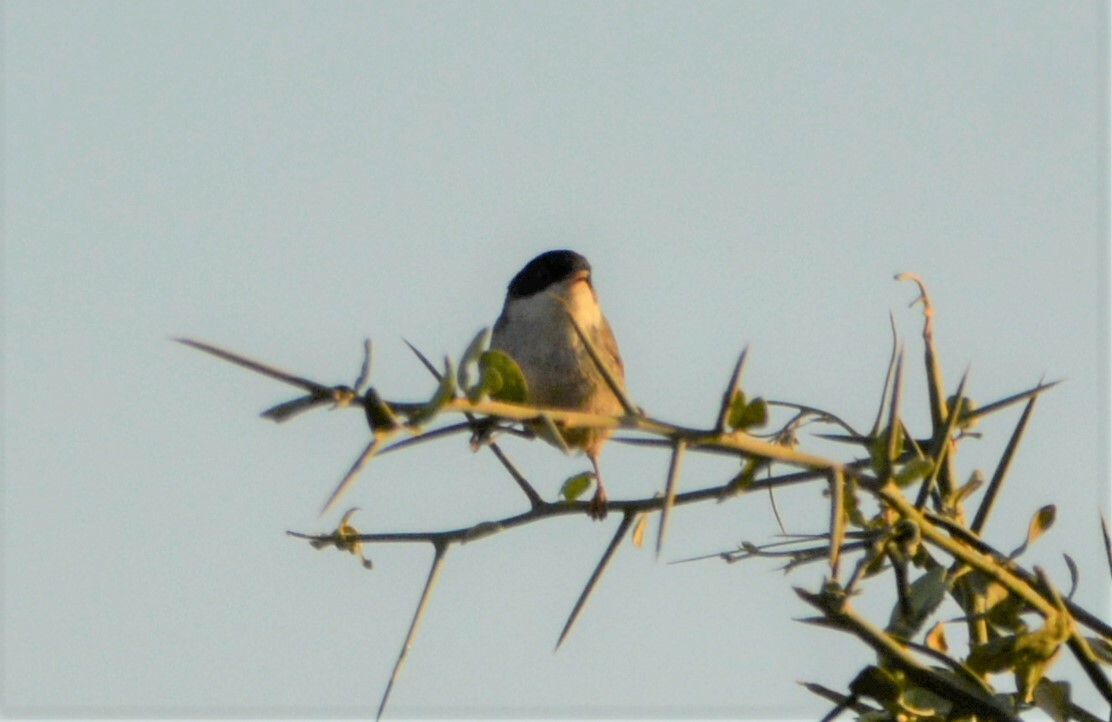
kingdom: Animalia
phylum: Chordata
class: Aves
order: Passeriformes
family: Sylviidae
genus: Curruca
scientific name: Curruca melanocephala
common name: Sardinian warbler
